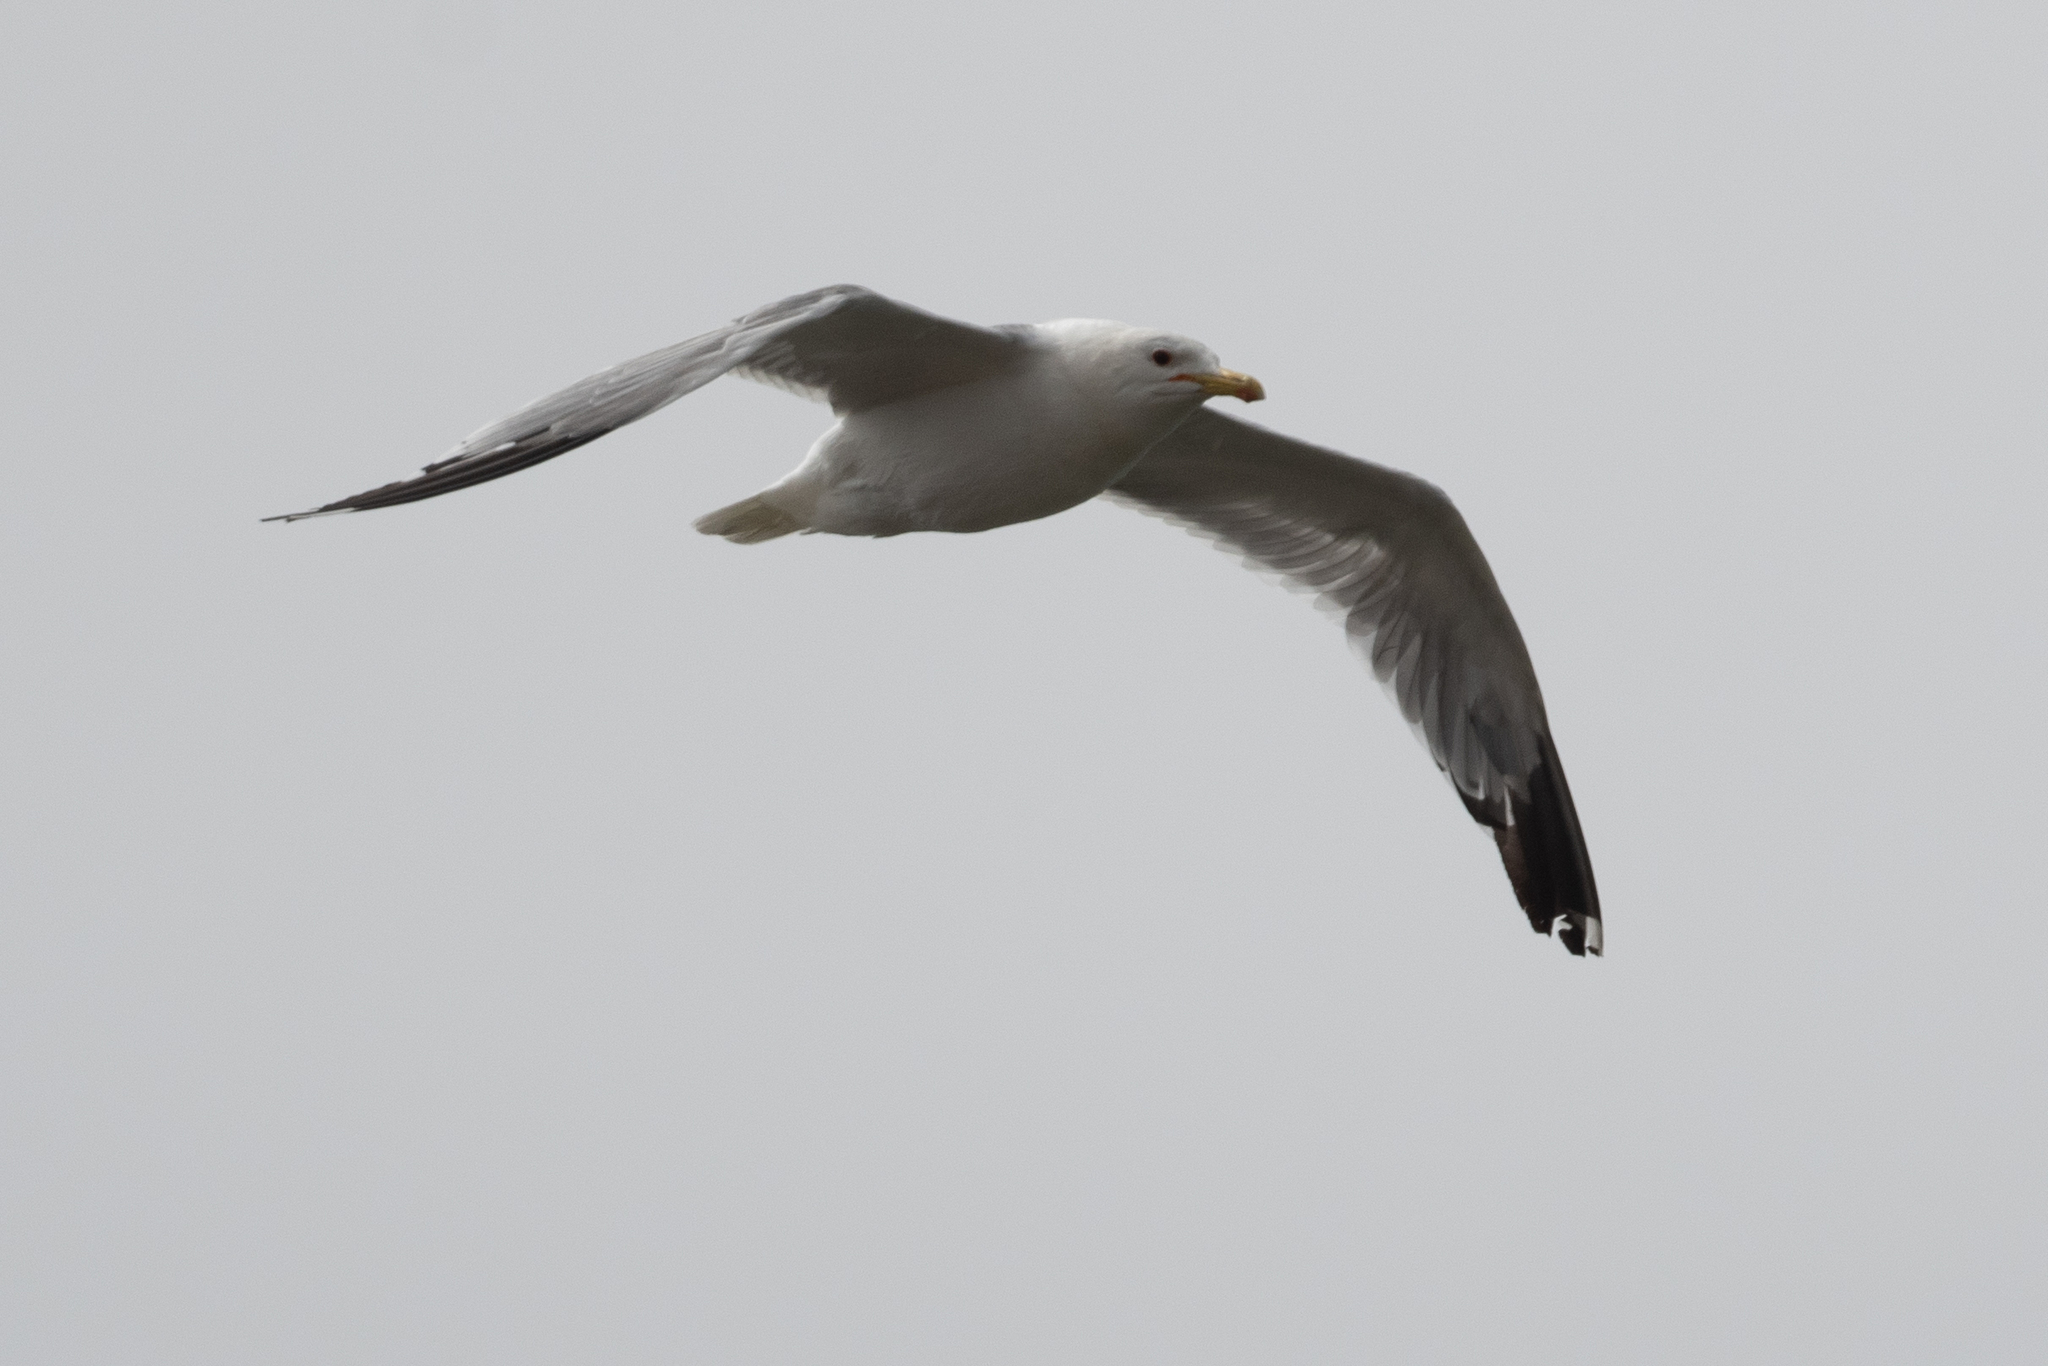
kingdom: Animalia
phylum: Chordata
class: Aves
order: Charadriiformes
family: Laridae
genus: Larus
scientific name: Larus californicus
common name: California gull
